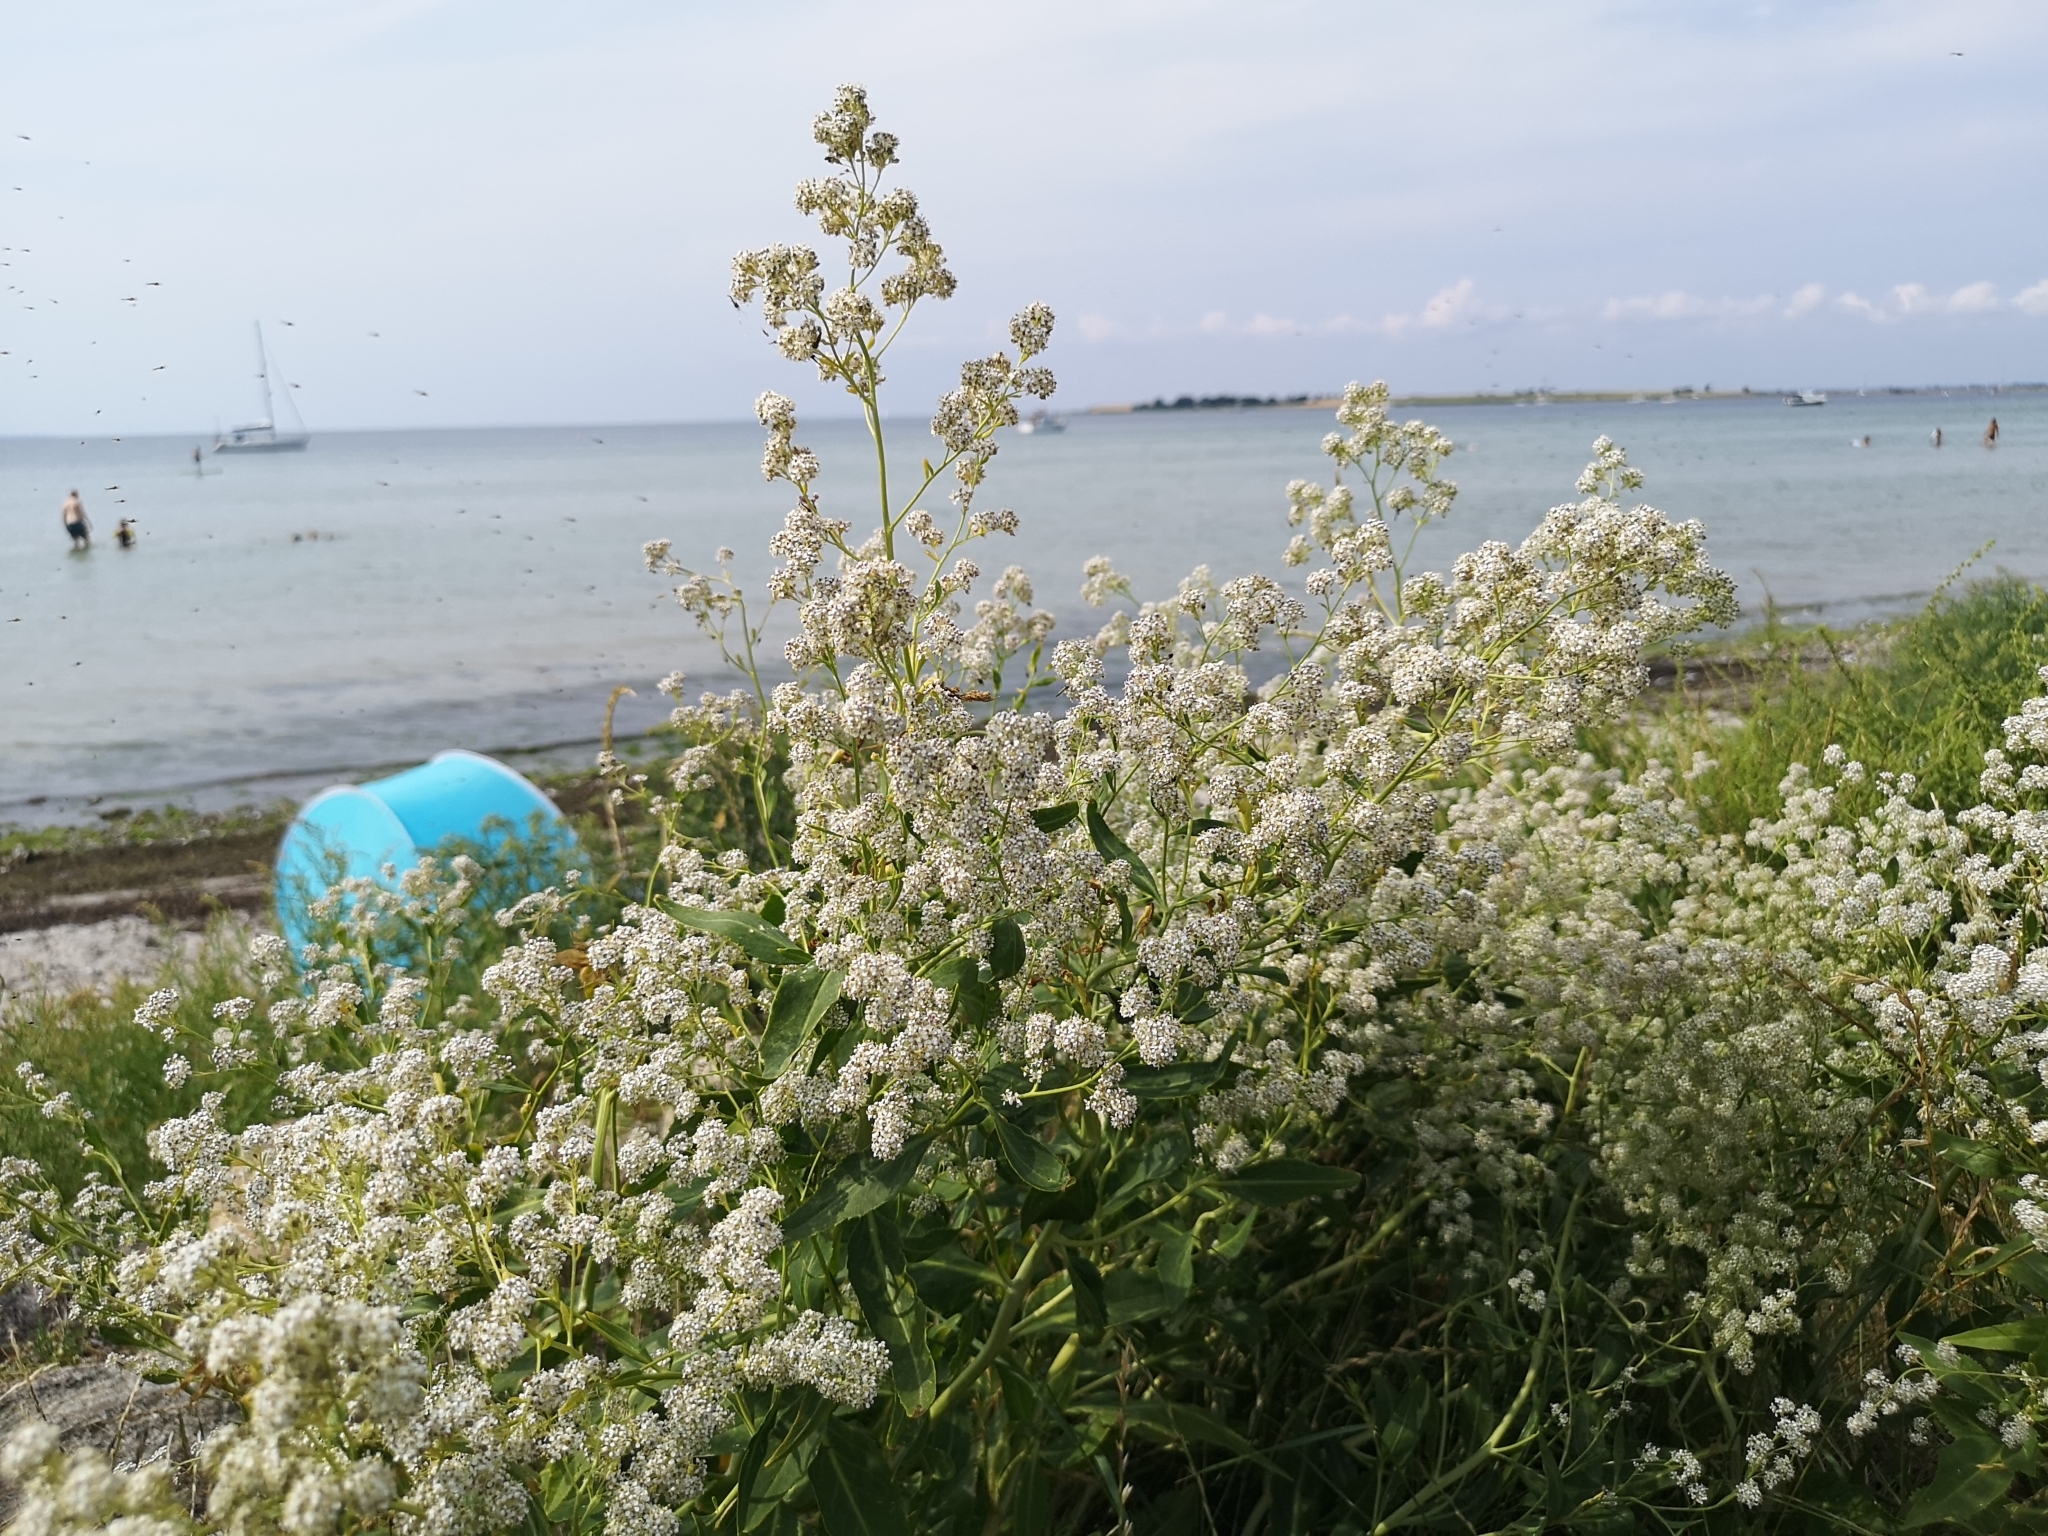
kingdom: Plantae
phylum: Tracheophyta
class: Magnoliopsida
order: Brassicales
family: Brassicaceae
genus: Lepidium
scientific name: Lepidium latifolium
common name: Dittander
